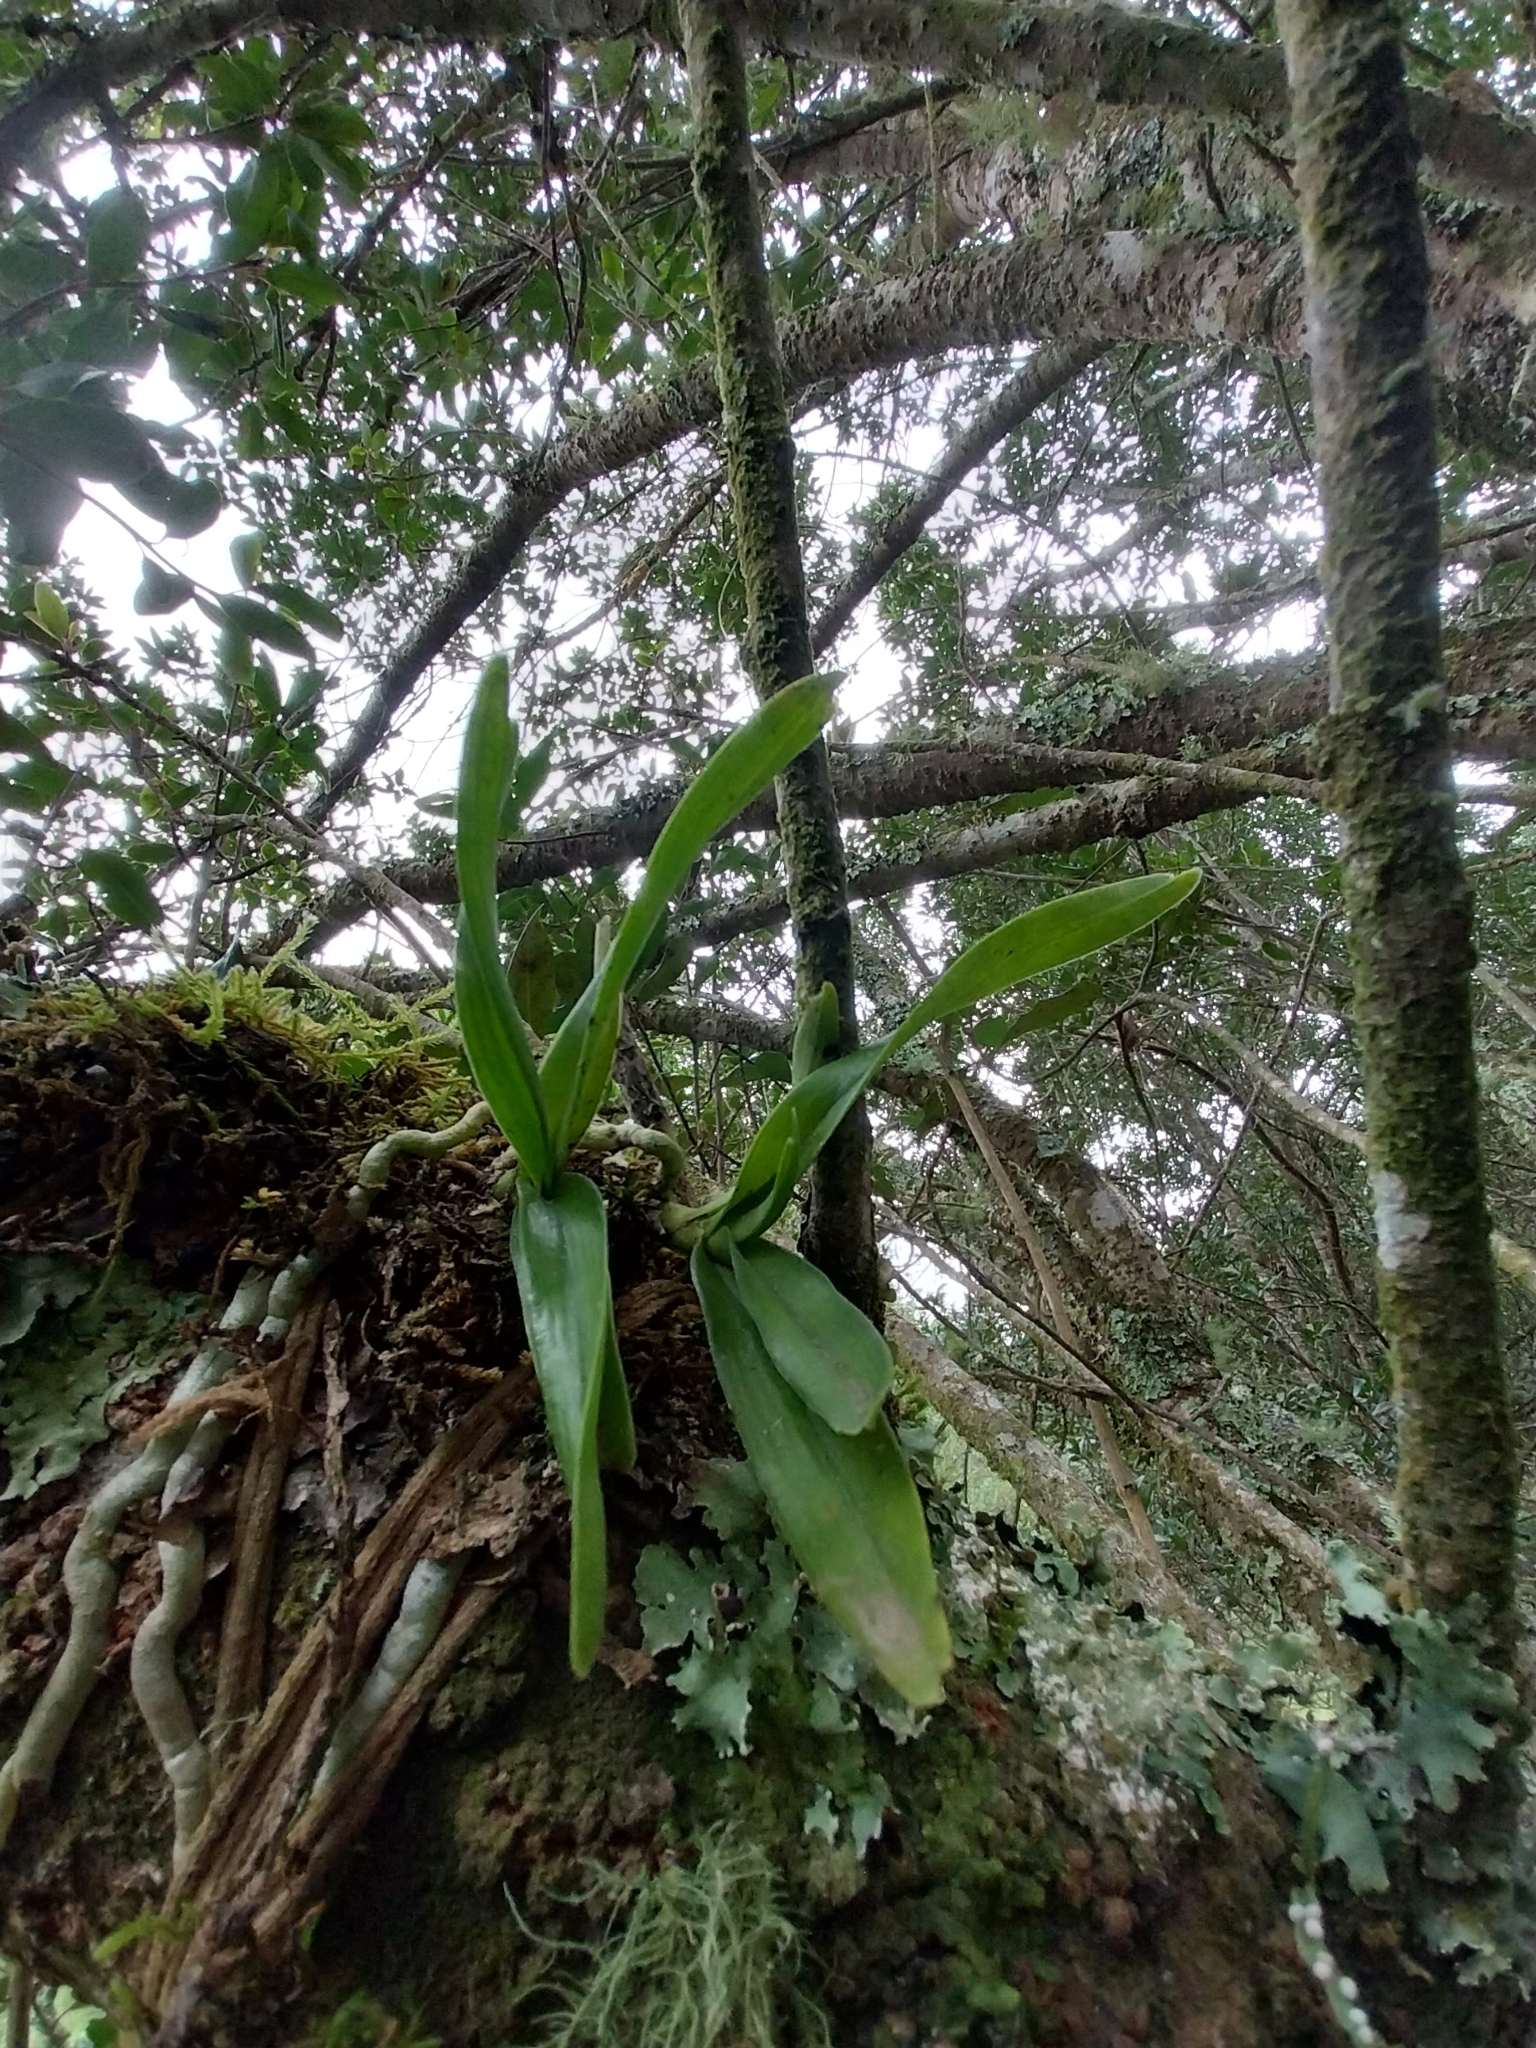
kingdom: Plantae
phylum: Tracheophyta
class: Liliopsida
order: Asparagales
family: Orchidaceae
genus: Tridactyle
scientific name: Tridactyle bicaudata
